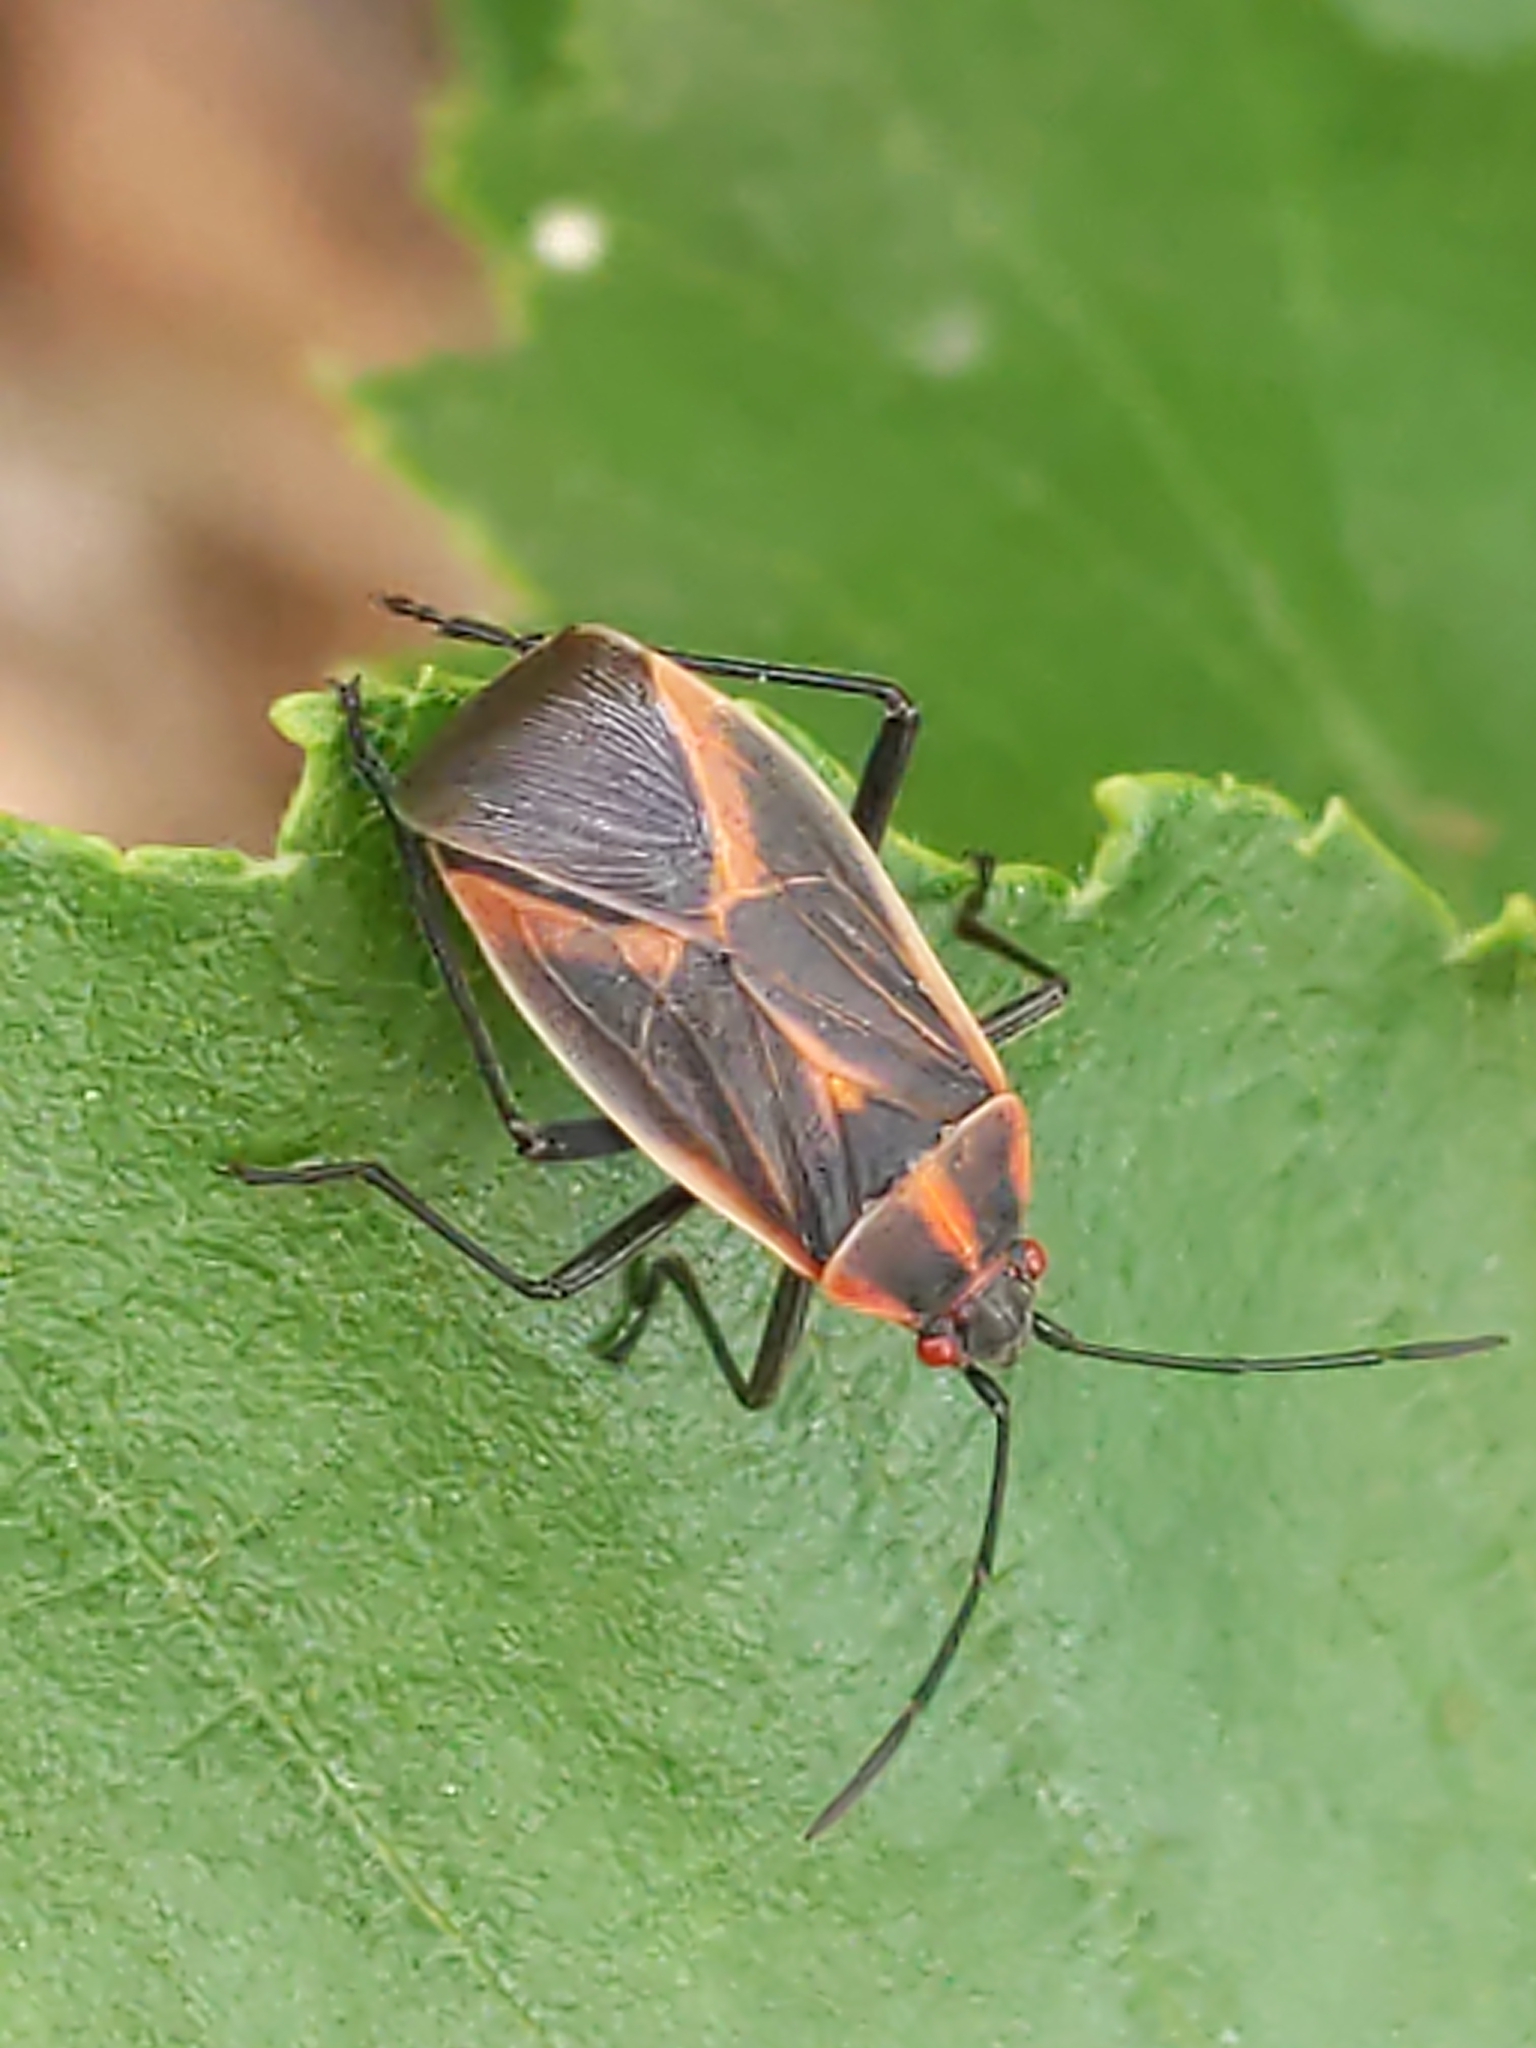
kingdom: Animalia
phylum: Arthropoda
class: Insecta
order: Hemiptera
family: Rhopalidae
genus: Boisea
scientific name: Boisea trivittata
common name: Boxelder bug
